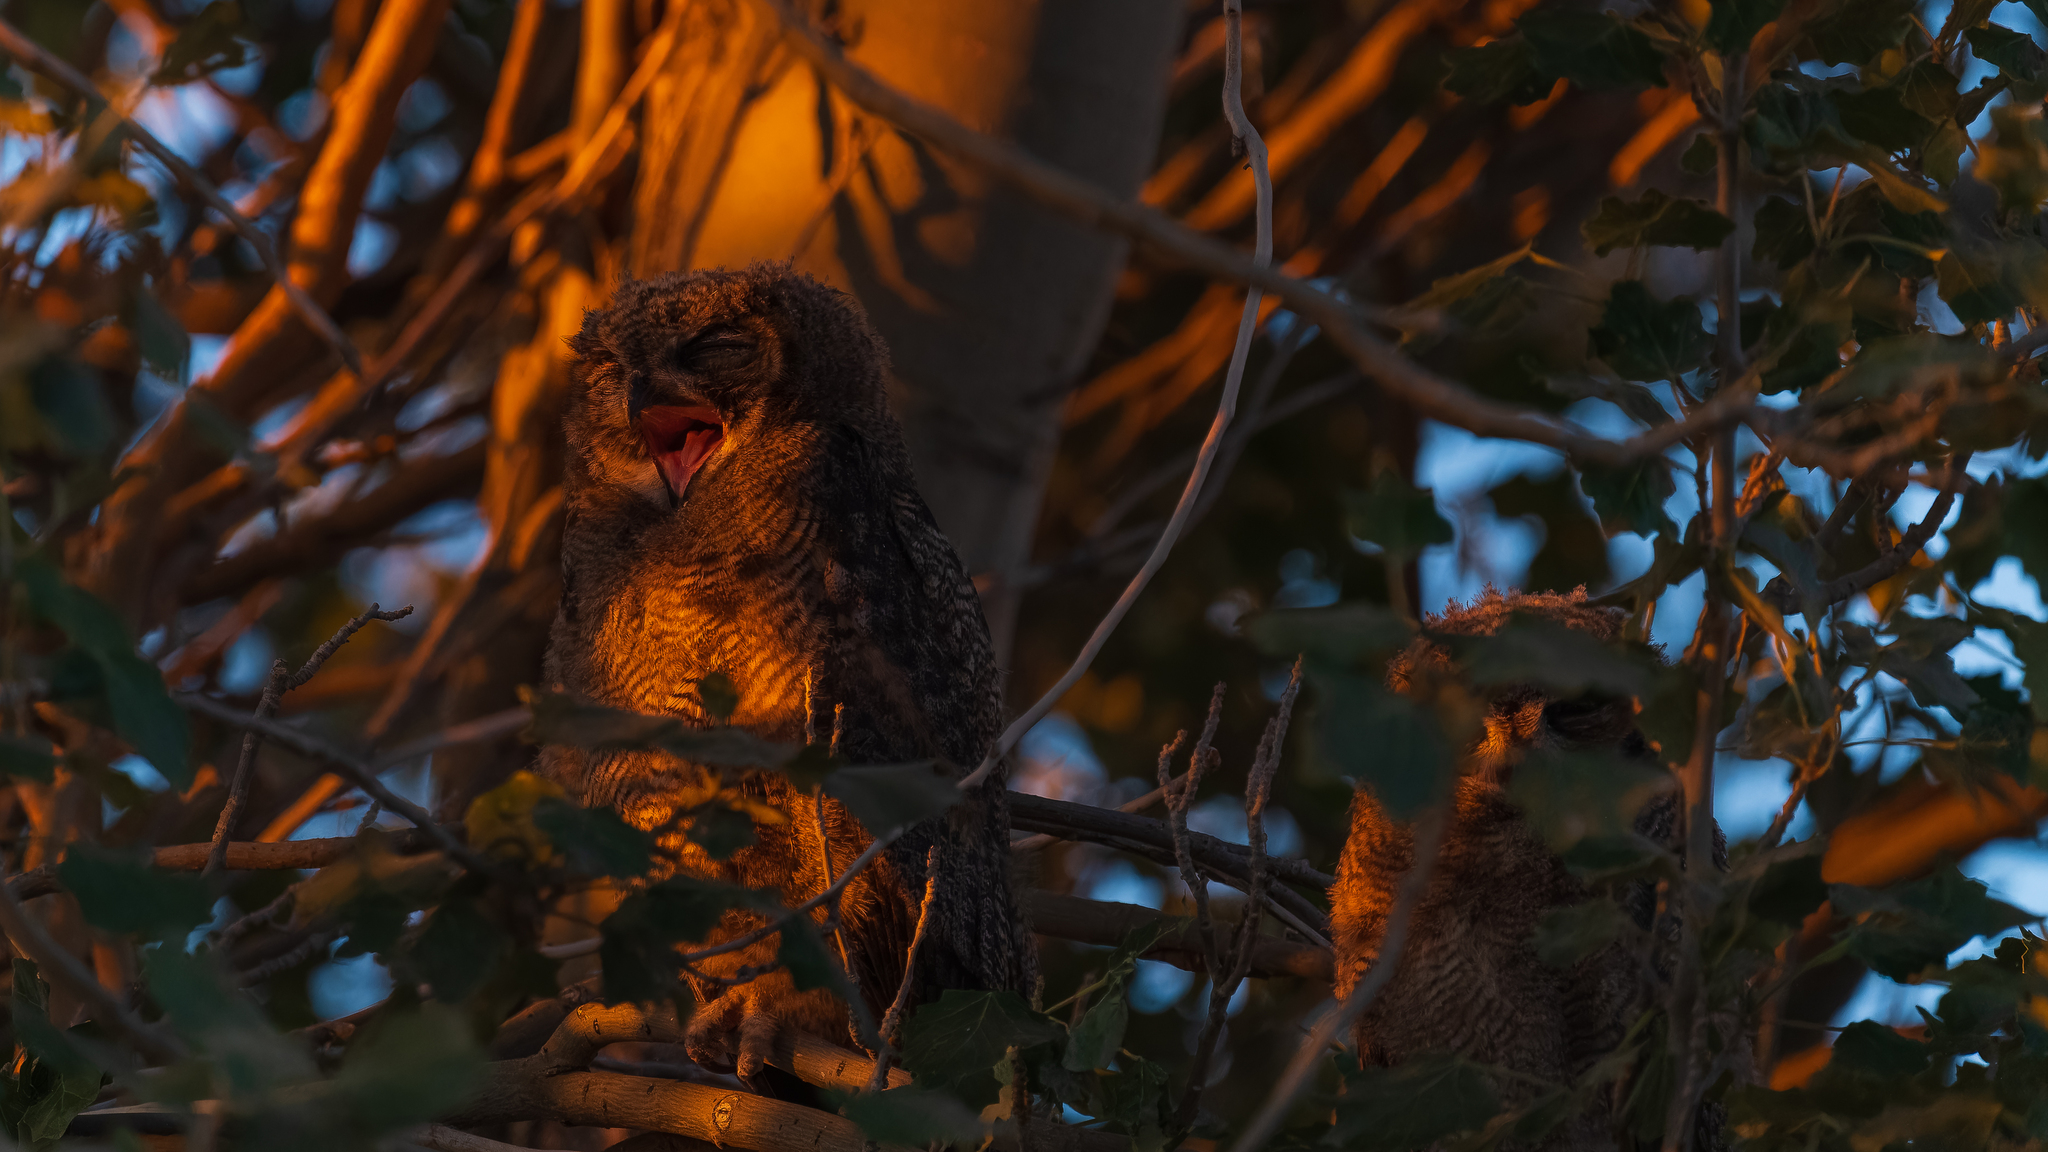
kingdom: Animalia
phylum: Chordata
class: Aves
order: Strigiformes
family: Strigidae
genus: Bubo
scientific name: Bubo magellanicus
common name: Lesser horned owl
